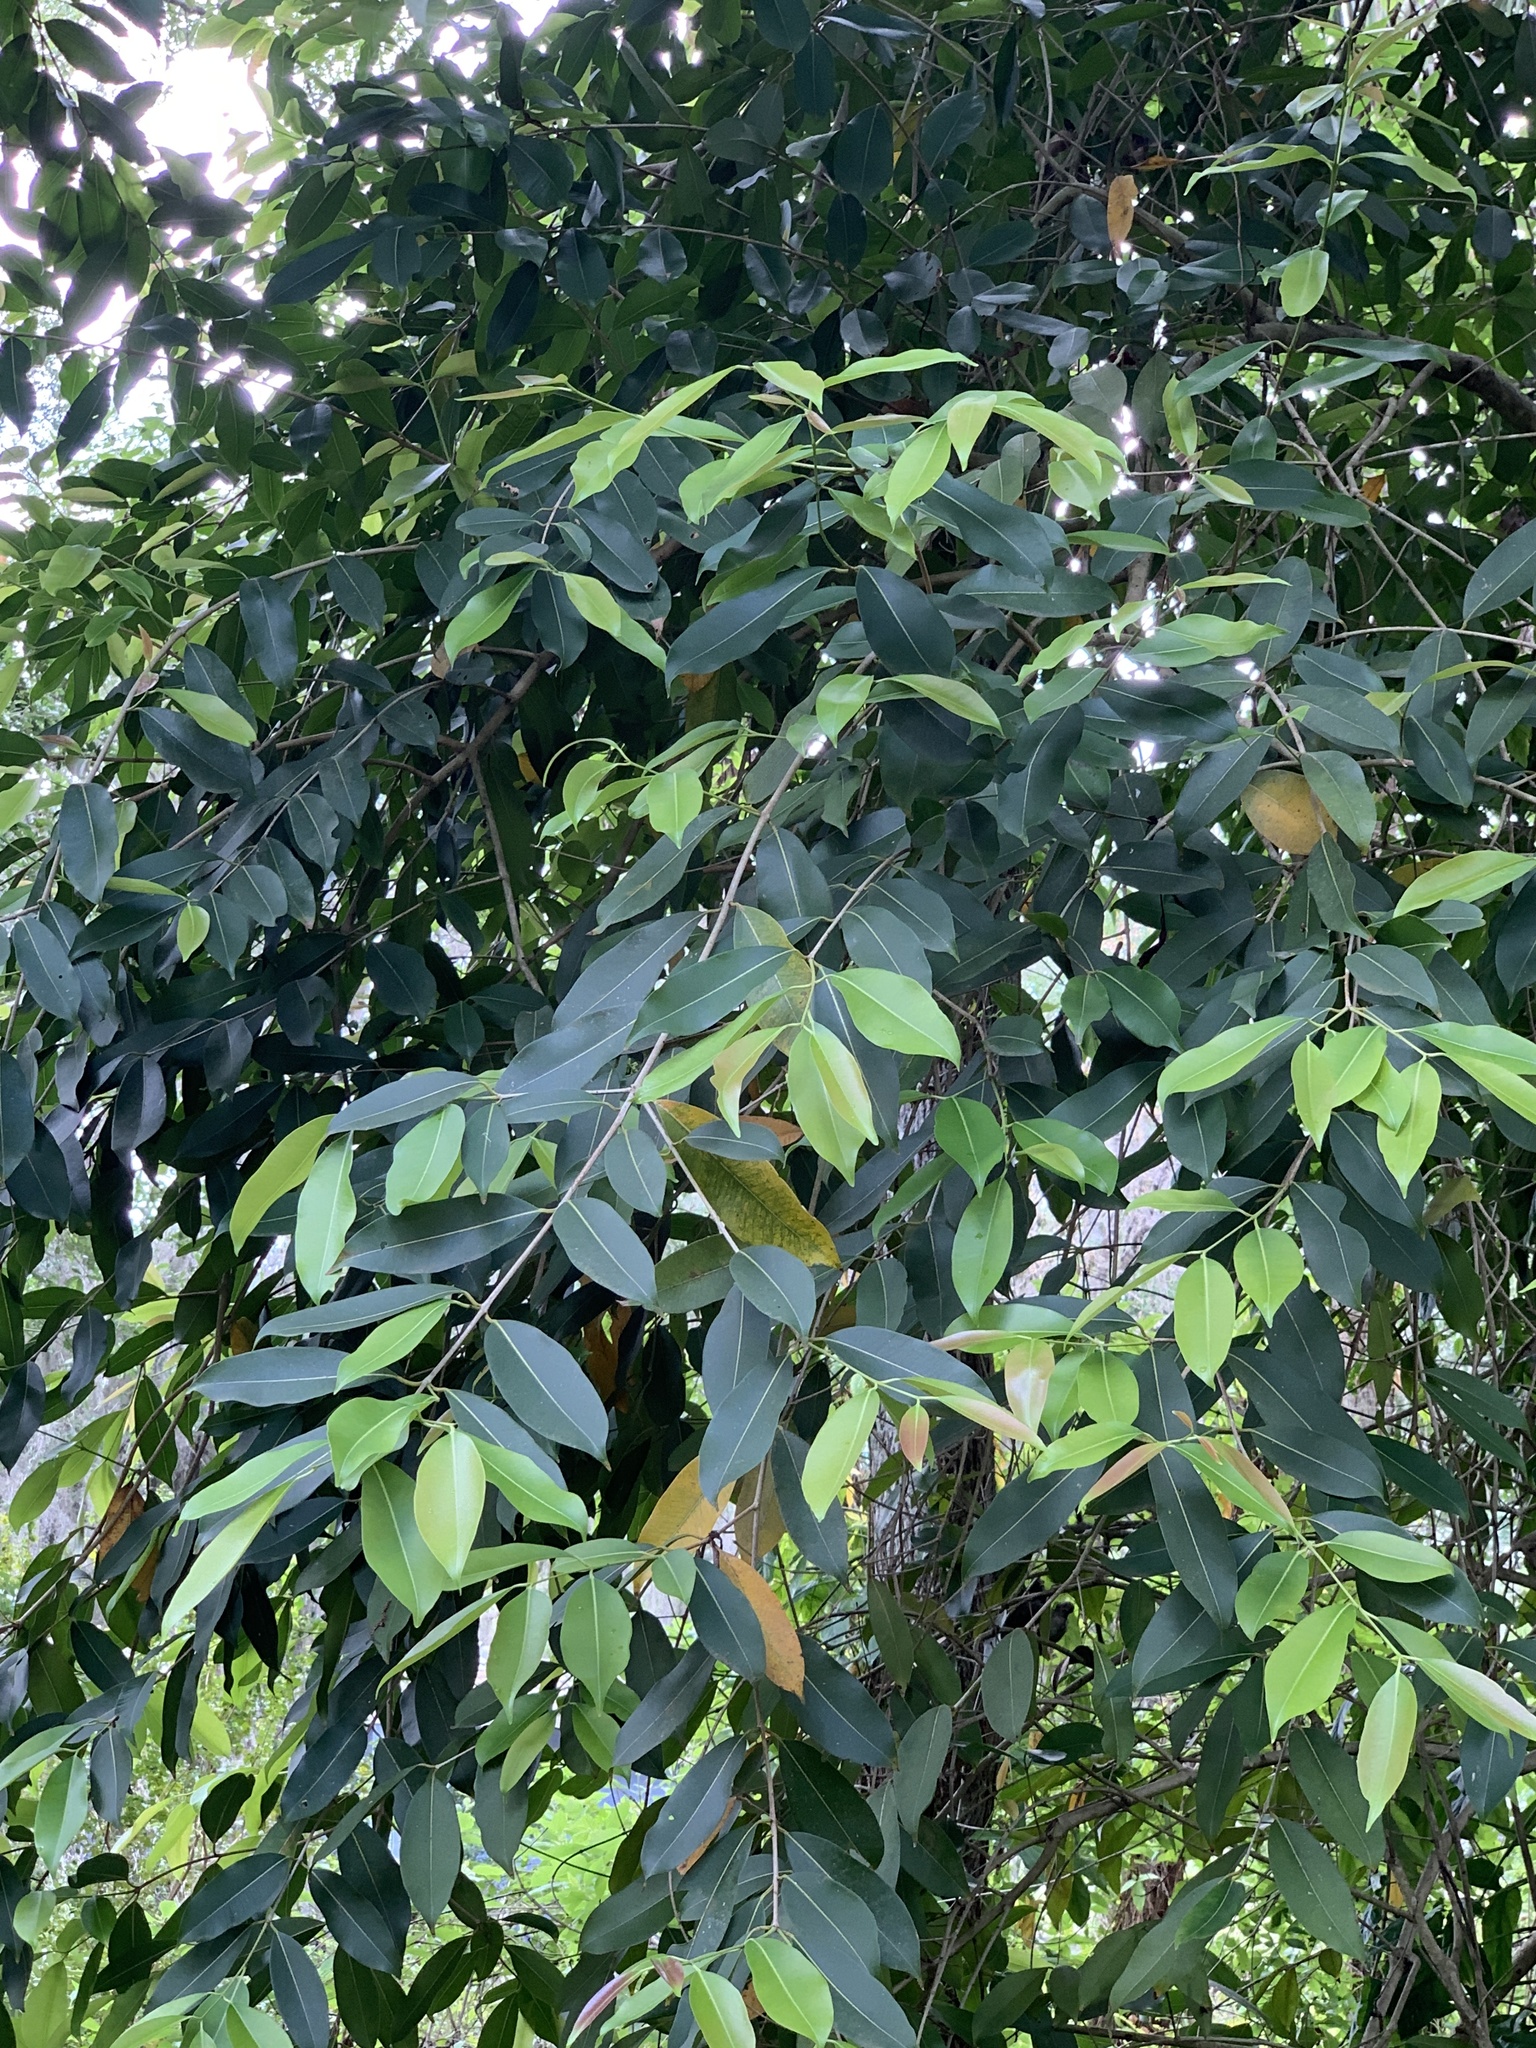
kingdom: Plantae
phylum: Tracheophyta
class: Magnoliopsida
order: Myrtales
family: Myrtaceae
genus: Syzygium
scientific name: Syzygium cumini
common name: Java plum
